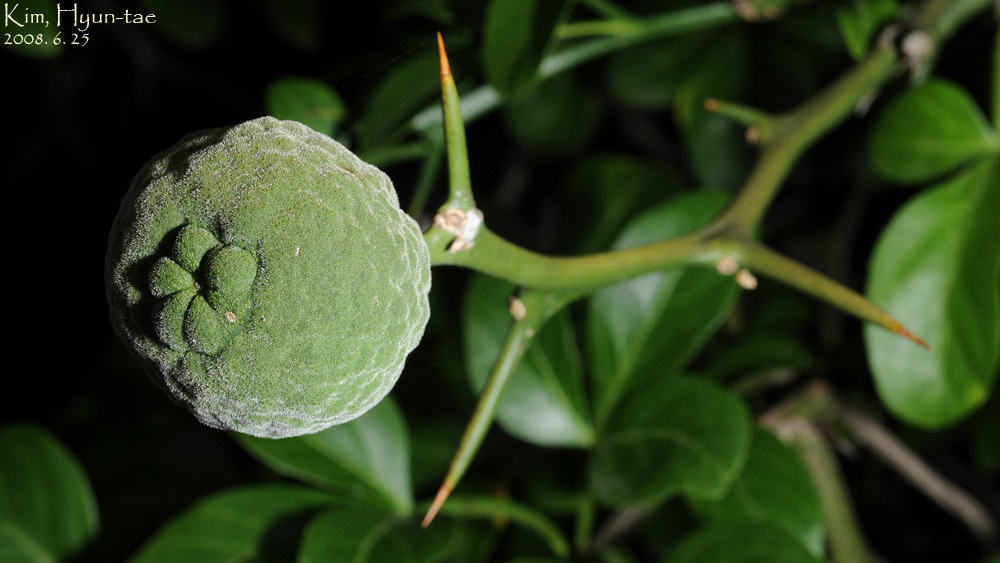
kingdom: Plantae
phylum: Tracheophyta
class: Magnoliopsida
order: Sapindales
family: Rutaceae
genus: Citrus
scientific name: Citrus trifoliata
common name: Japanese bitter-orange
